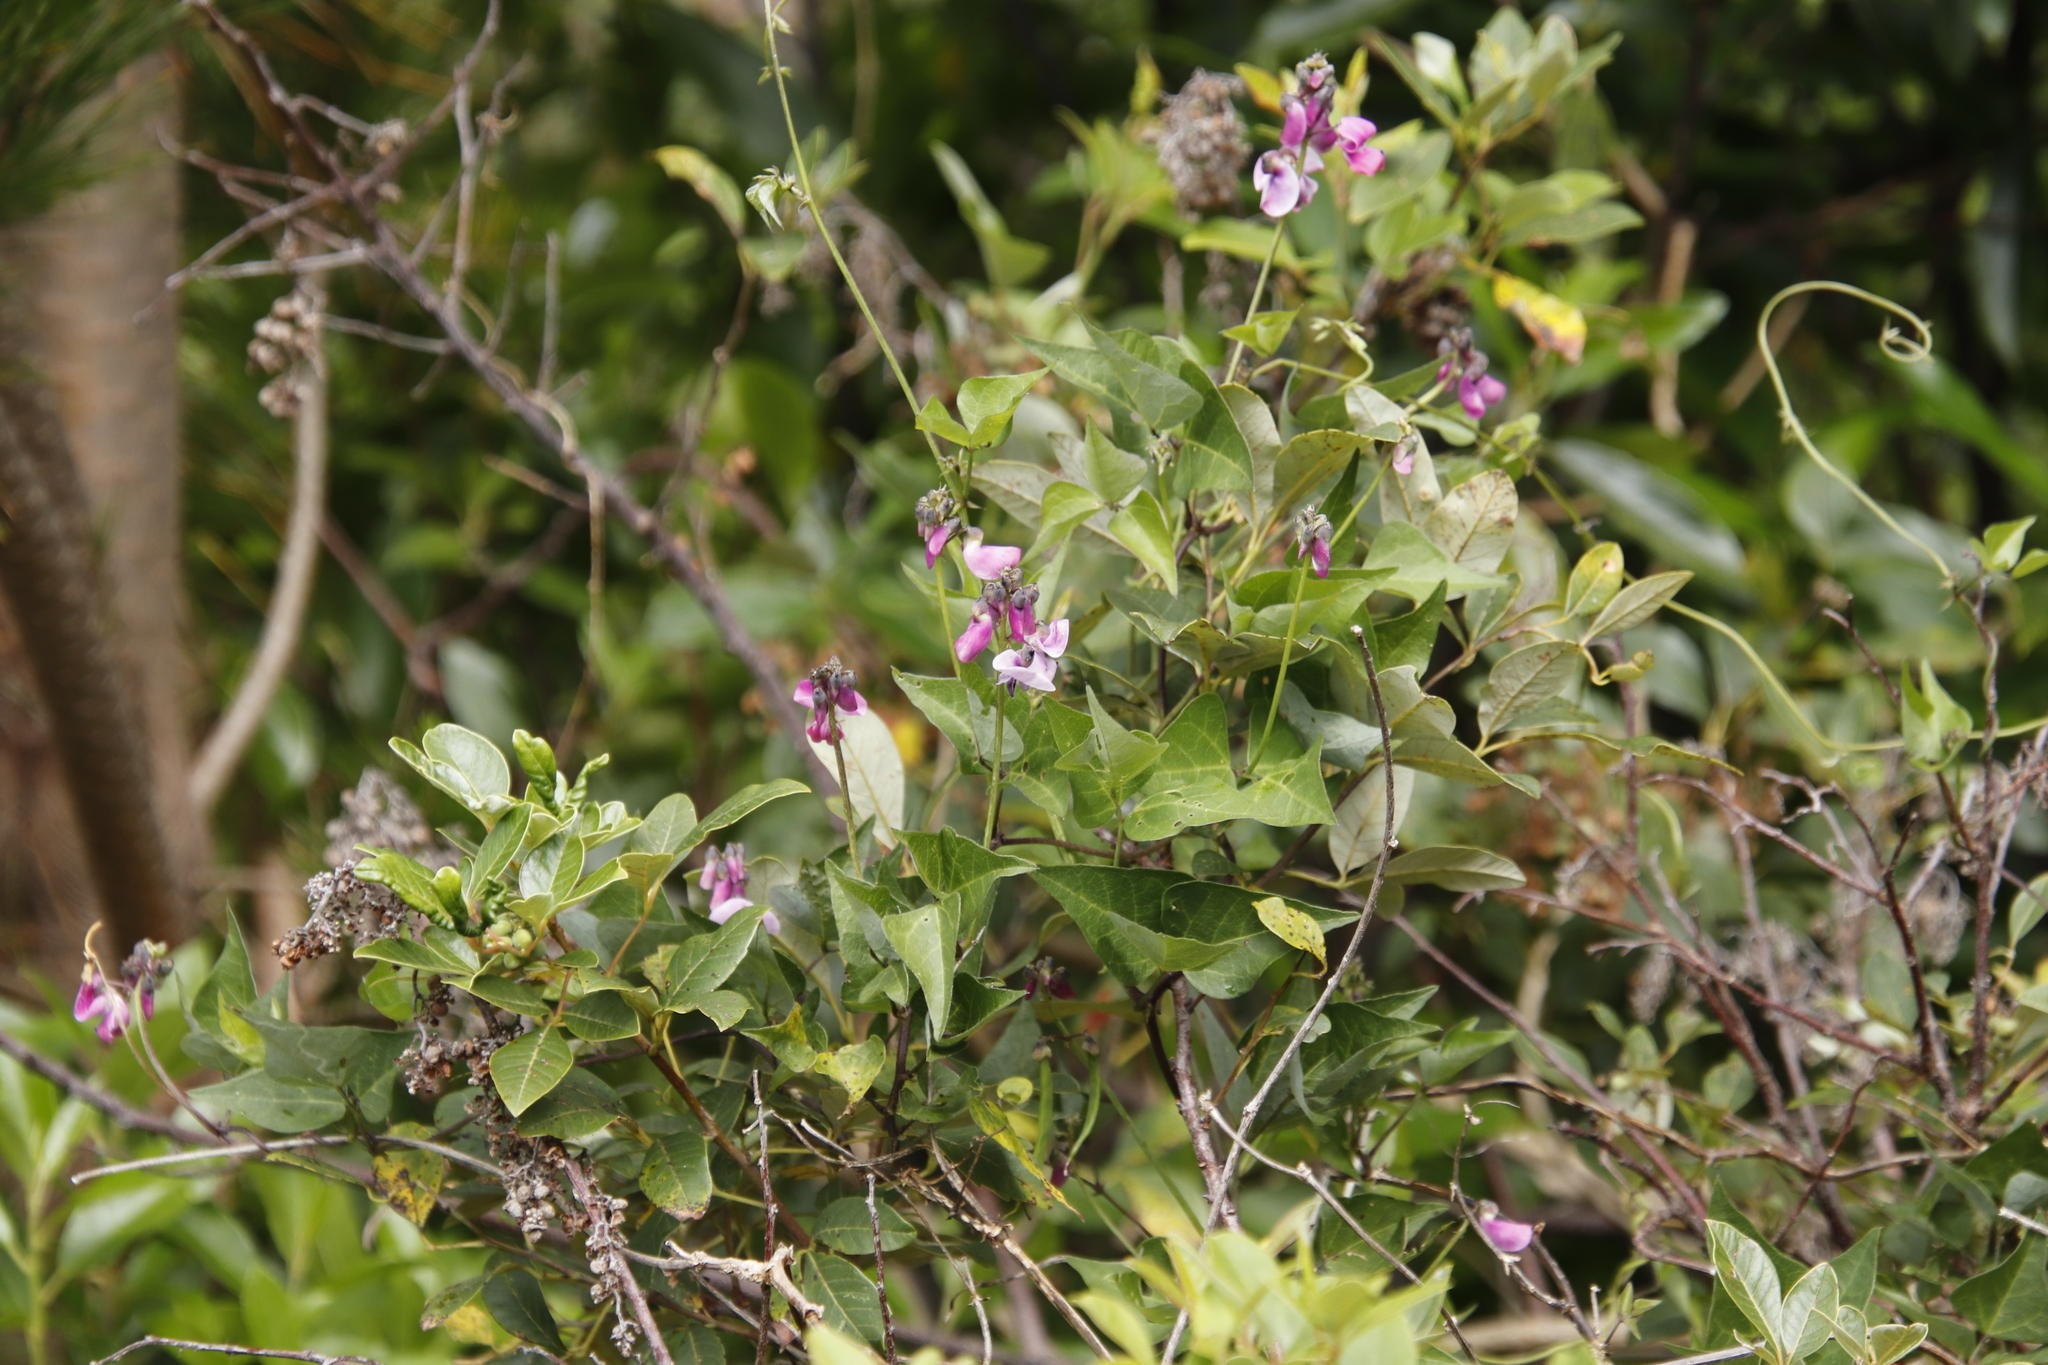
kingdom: Plantae
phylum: Tracheophyta
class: Magnoliopsida
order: Fabales
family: Fabaceae
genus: Dipogon
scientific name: Dipogon lignosus
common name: Okie bean
